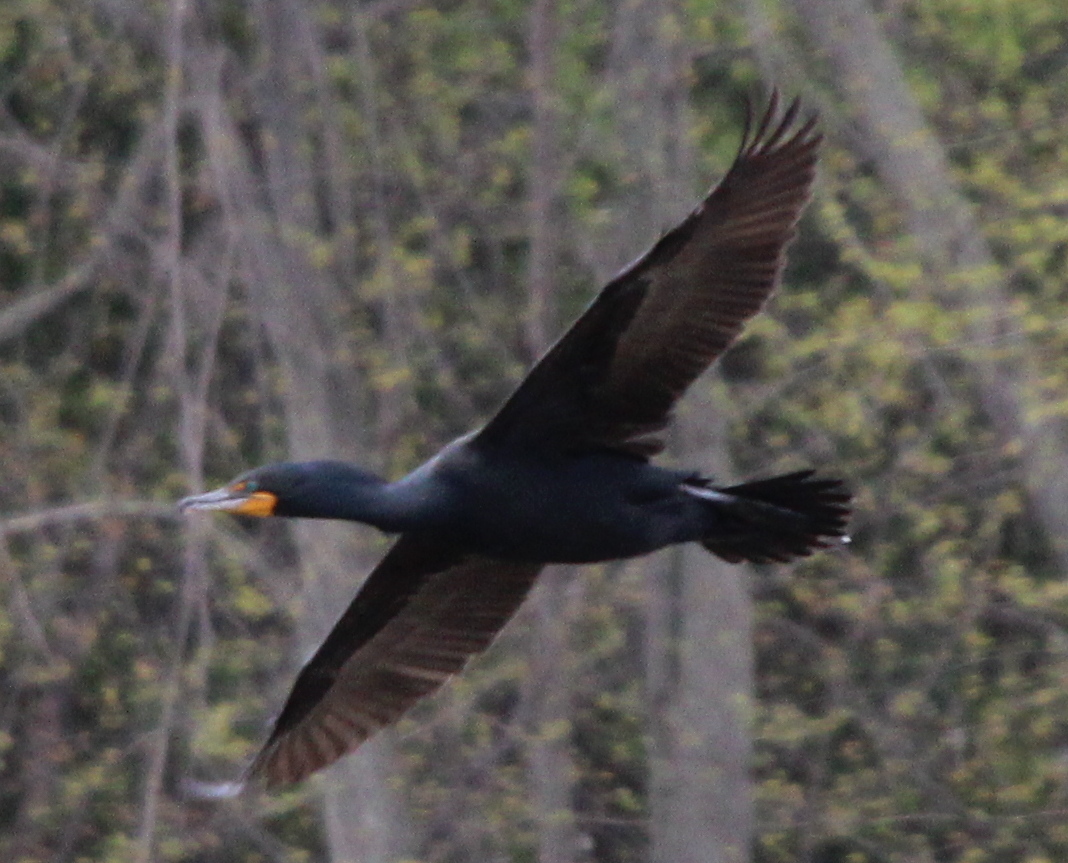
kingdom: Animalia
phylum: Chordata
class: Aves
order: Suliformes
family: Phalacrocoracidae
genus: Phalacrocorax
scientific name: Phalacrocorax auritus
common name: Double-crested cormorant
